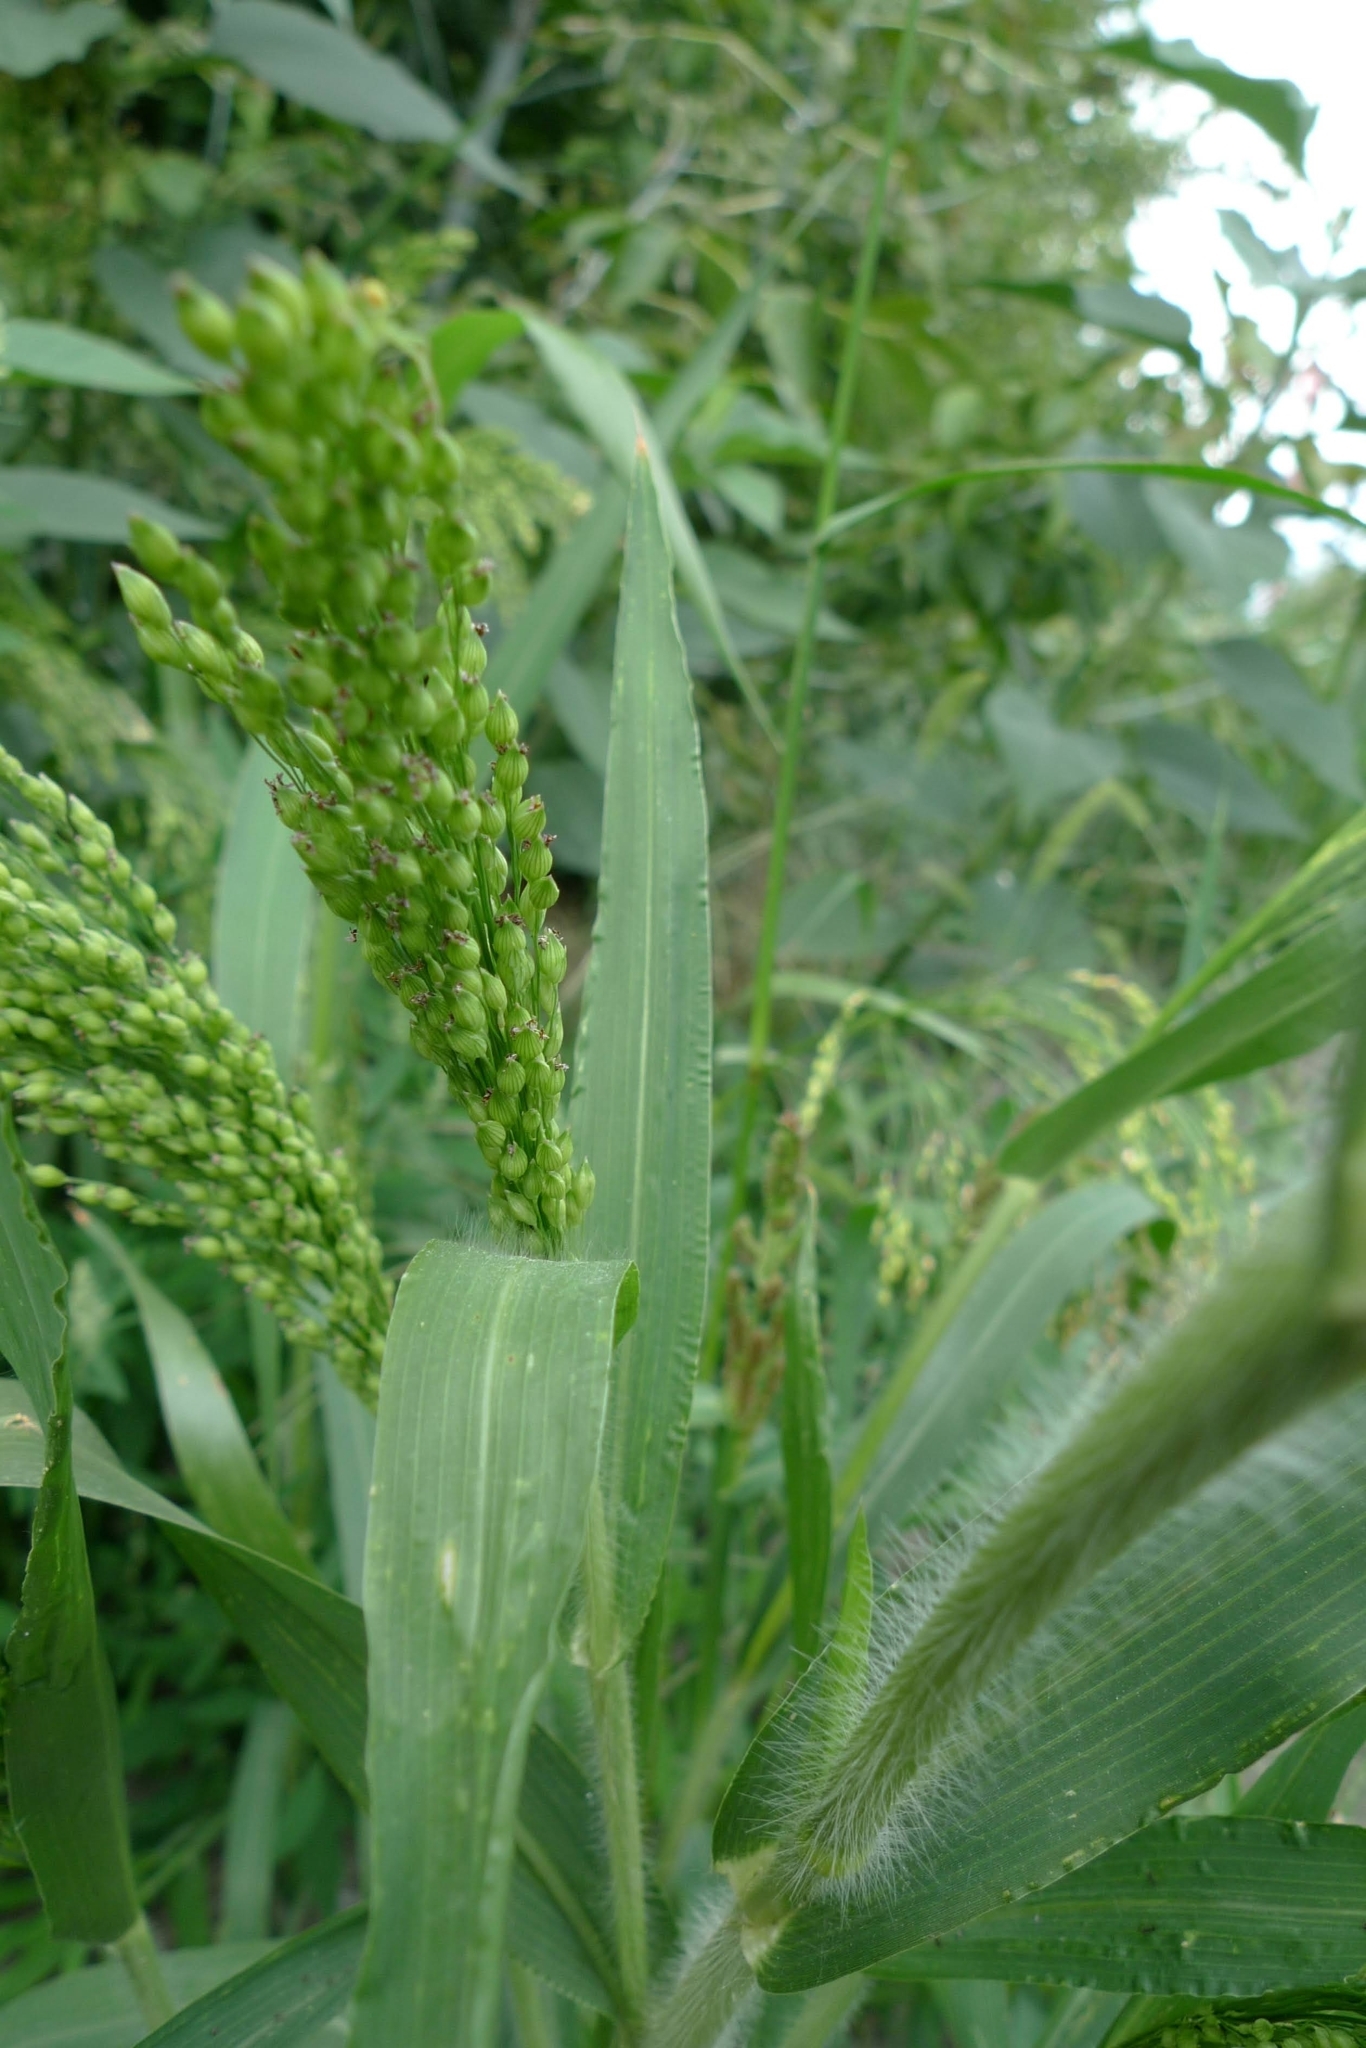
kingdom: Plantae
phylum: Tracheophyta
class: Liliopsida
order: Poales
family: Poaceae
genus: Panicum
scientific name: Panicum miliaceum
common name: Common millet
